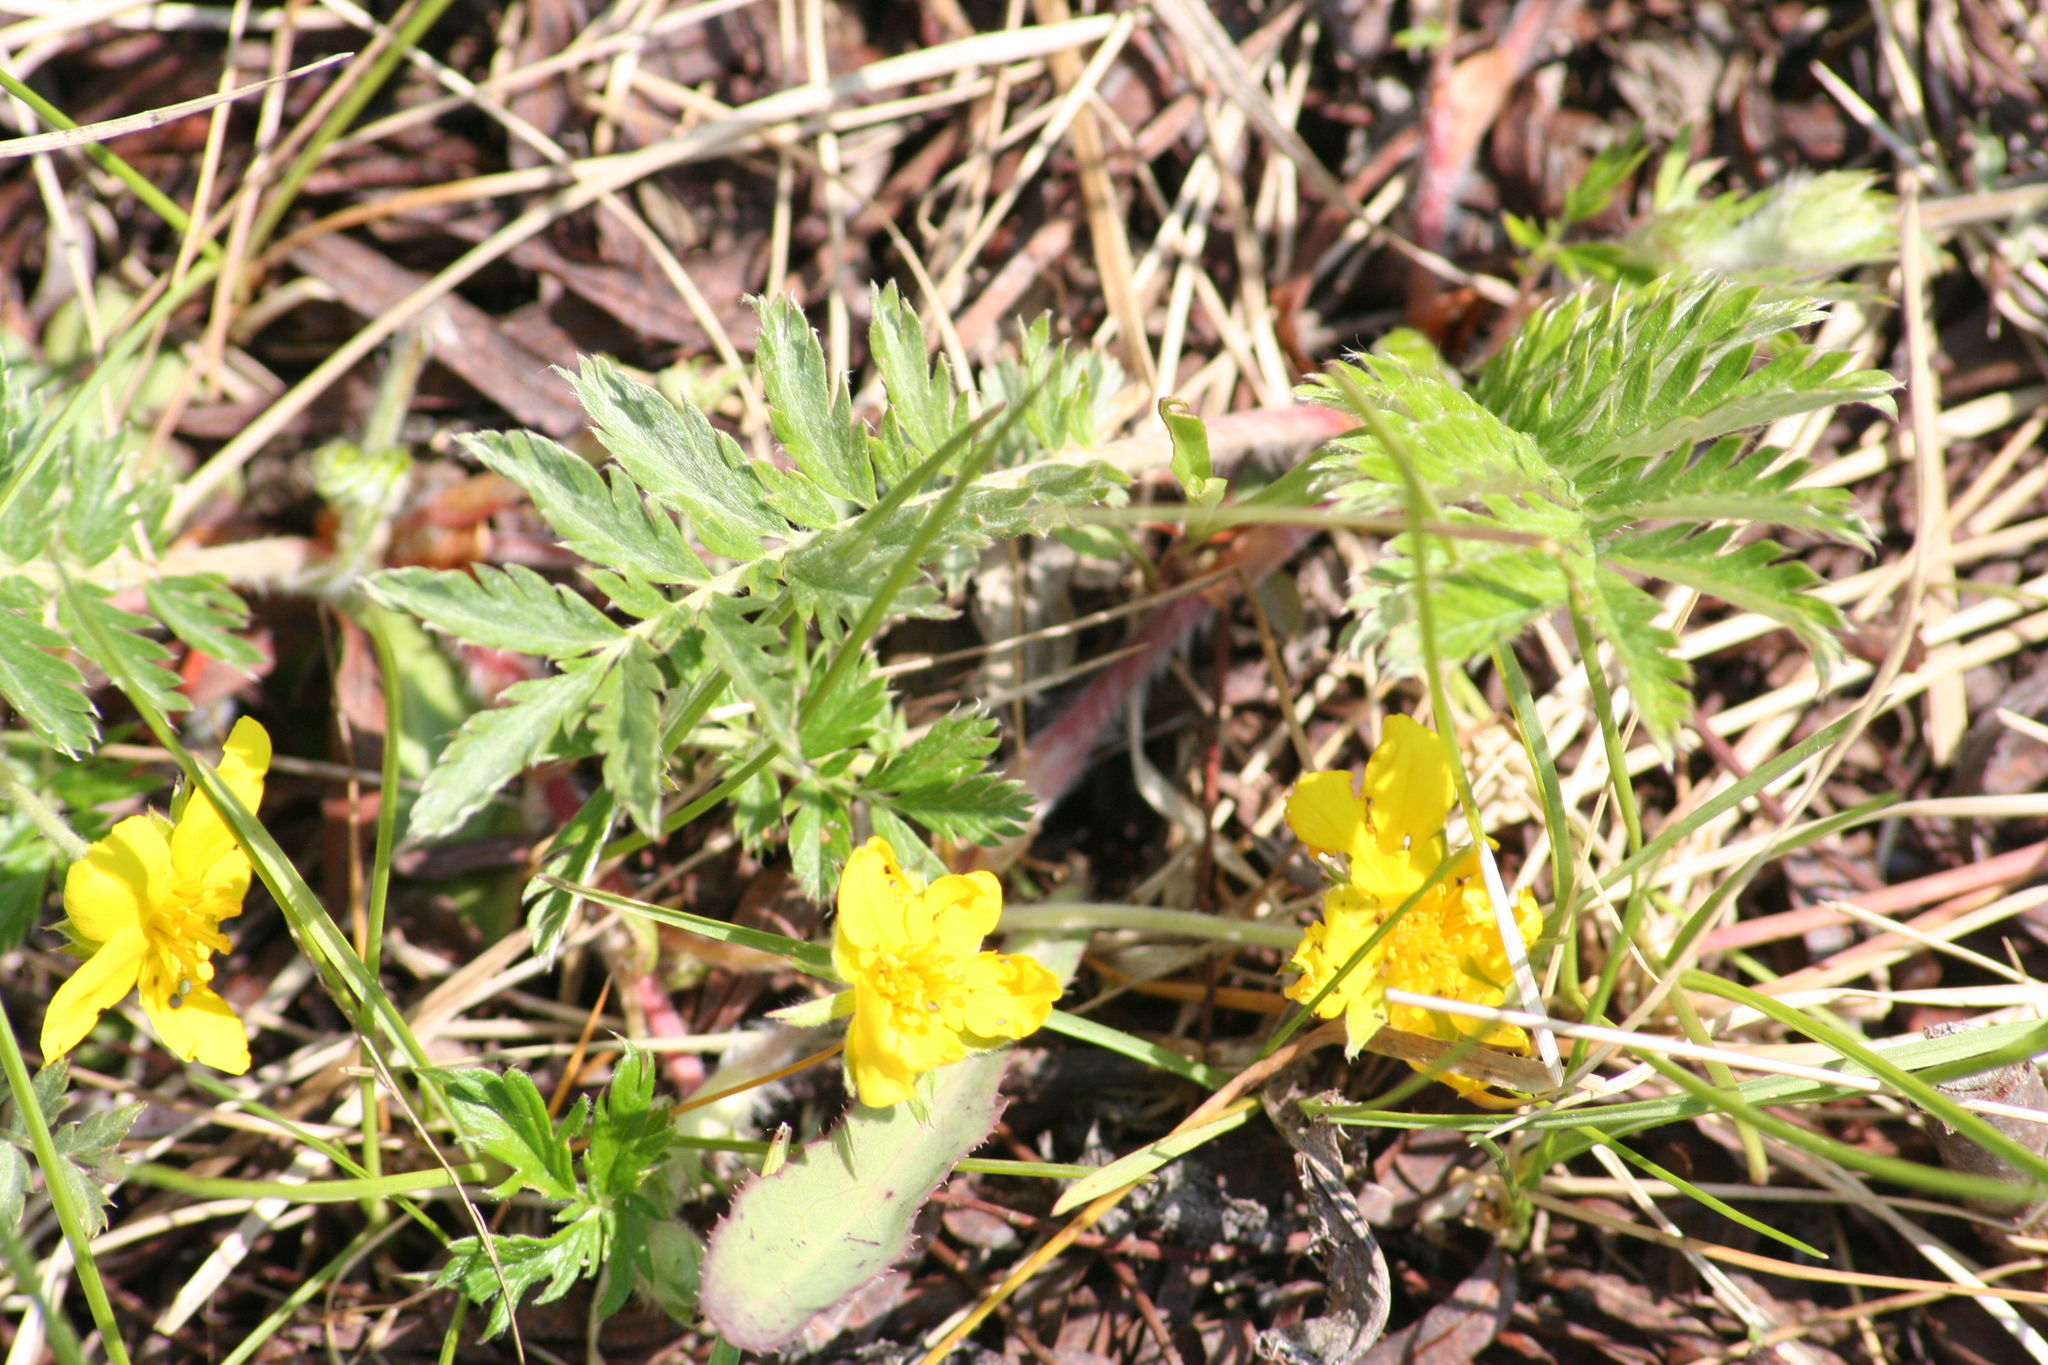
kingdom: Plantae
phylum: Tracheophyta
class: Magnoliopsida
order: Rosales
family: Rosaceae
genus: Argentina
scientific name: Argentina anserina
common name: Common silverweed
